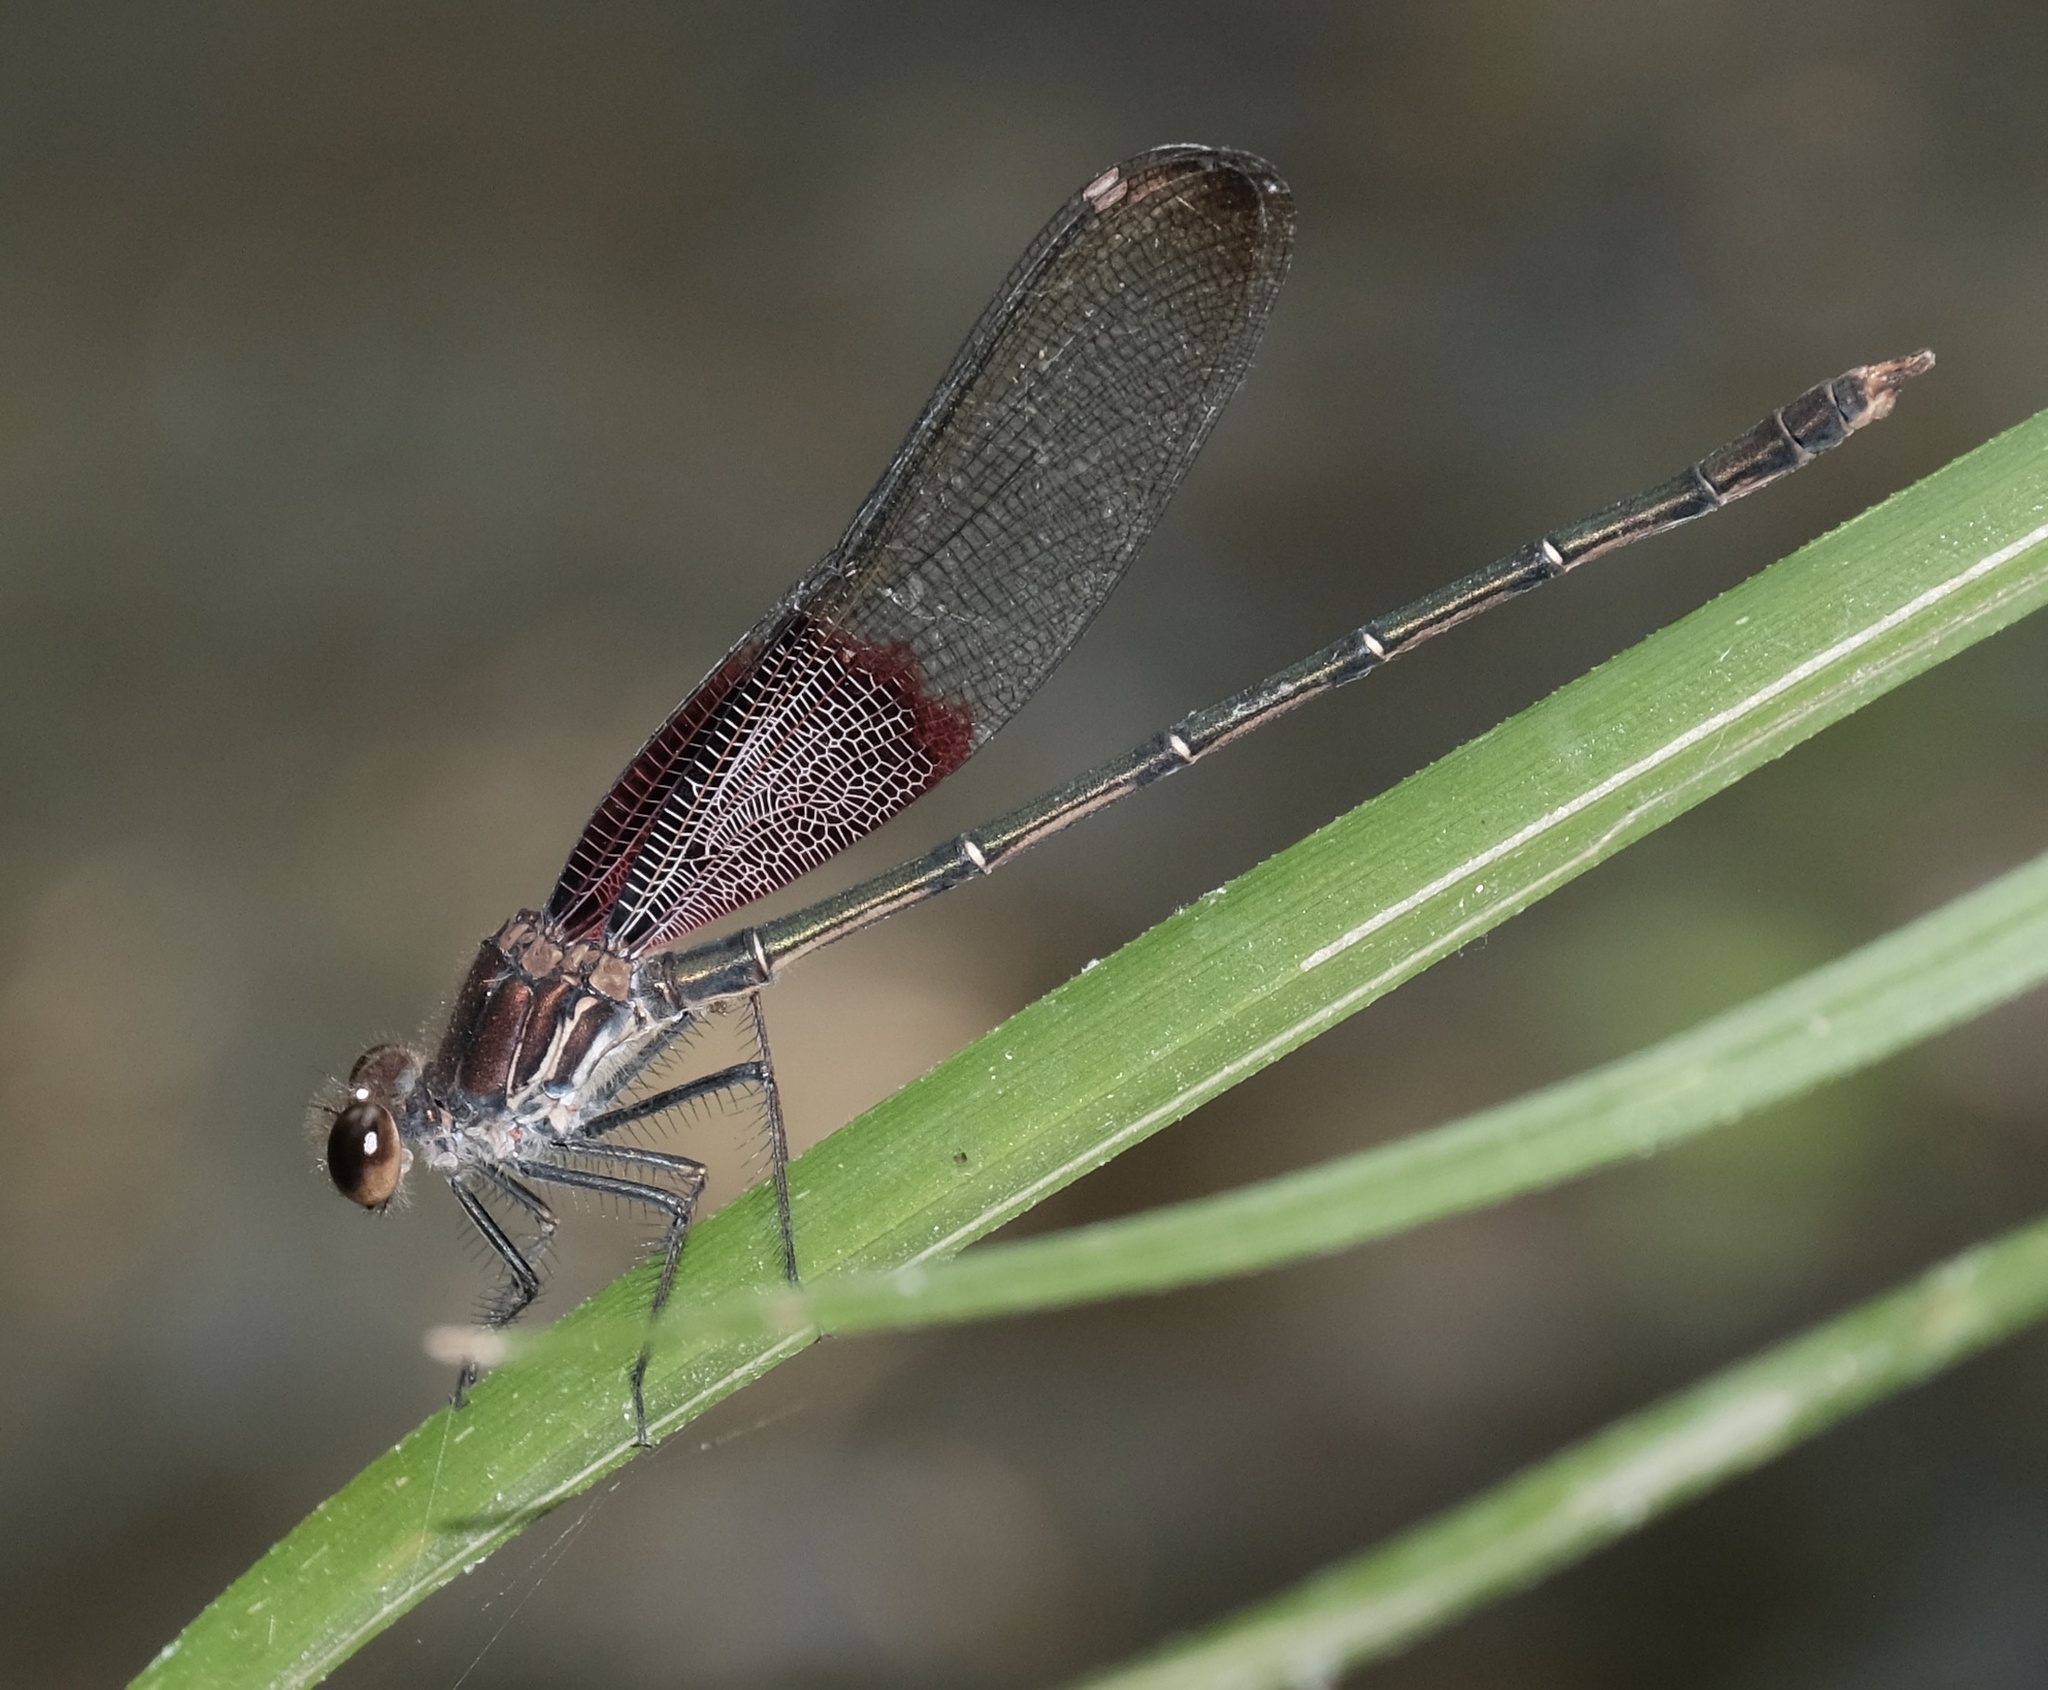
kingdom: Animalia
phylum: Arthropoda
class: Insecta
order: Odonata
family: Calopterygidae
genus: Hetaerina
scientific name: Hetaerina americana
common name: American rubyspot
